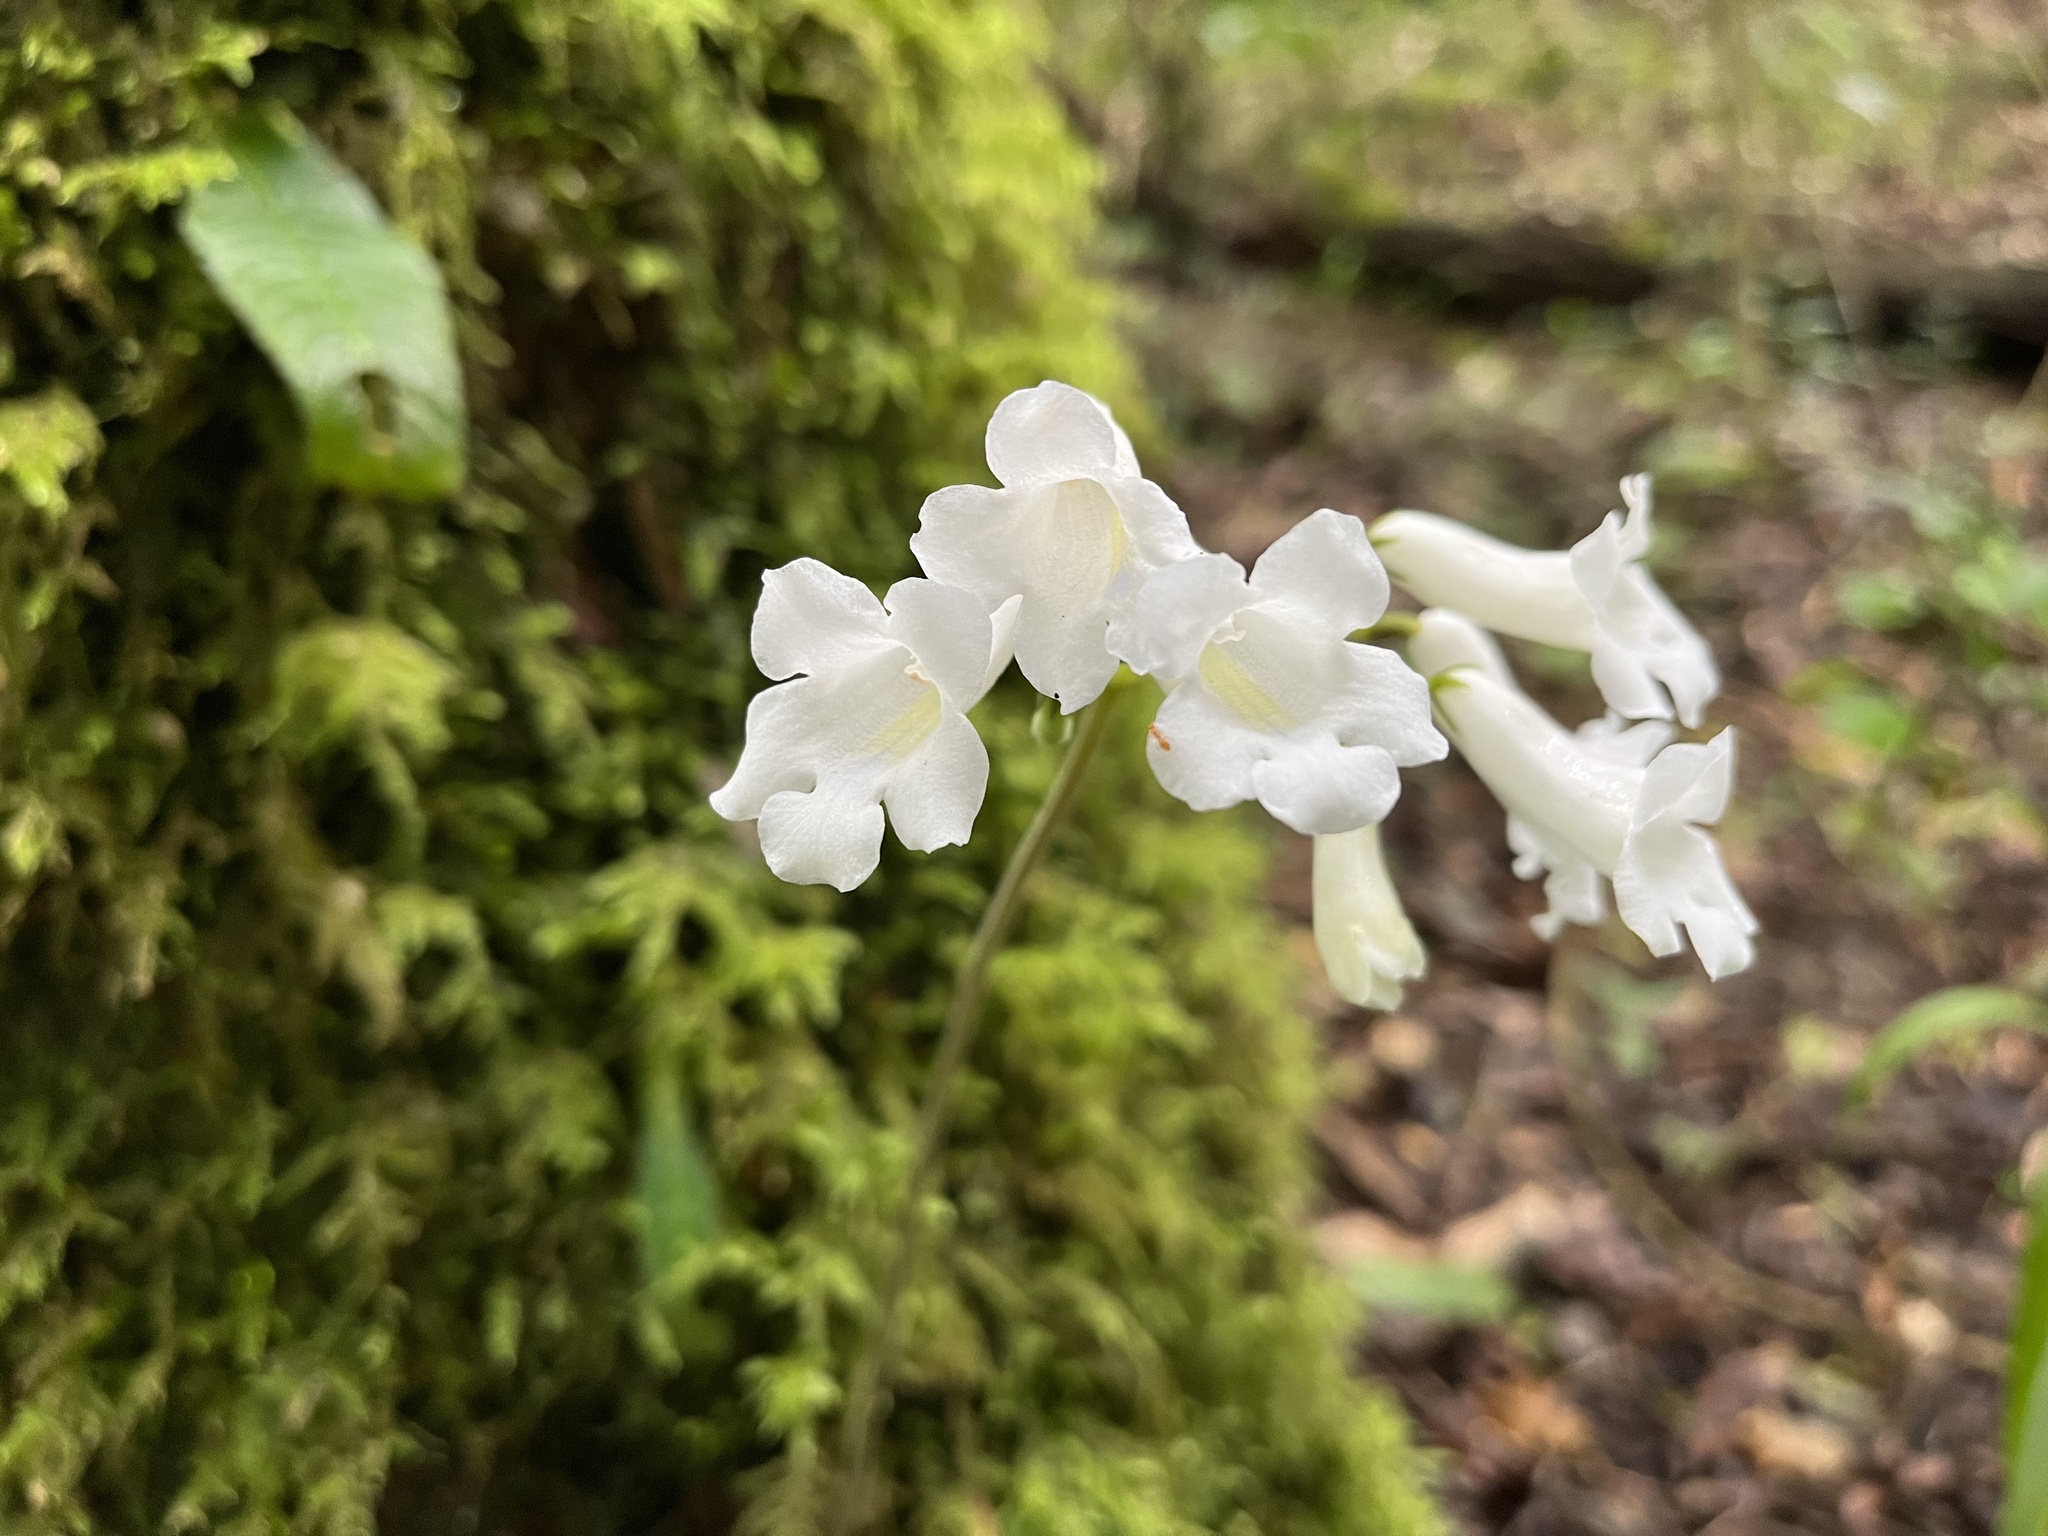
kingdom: Plantae
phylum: Tracheophyta
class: Magnoliopsida
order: Lamiales
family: Gesneriaceae
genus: Streptocarpus
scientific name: Streptocarpus wilmsii
